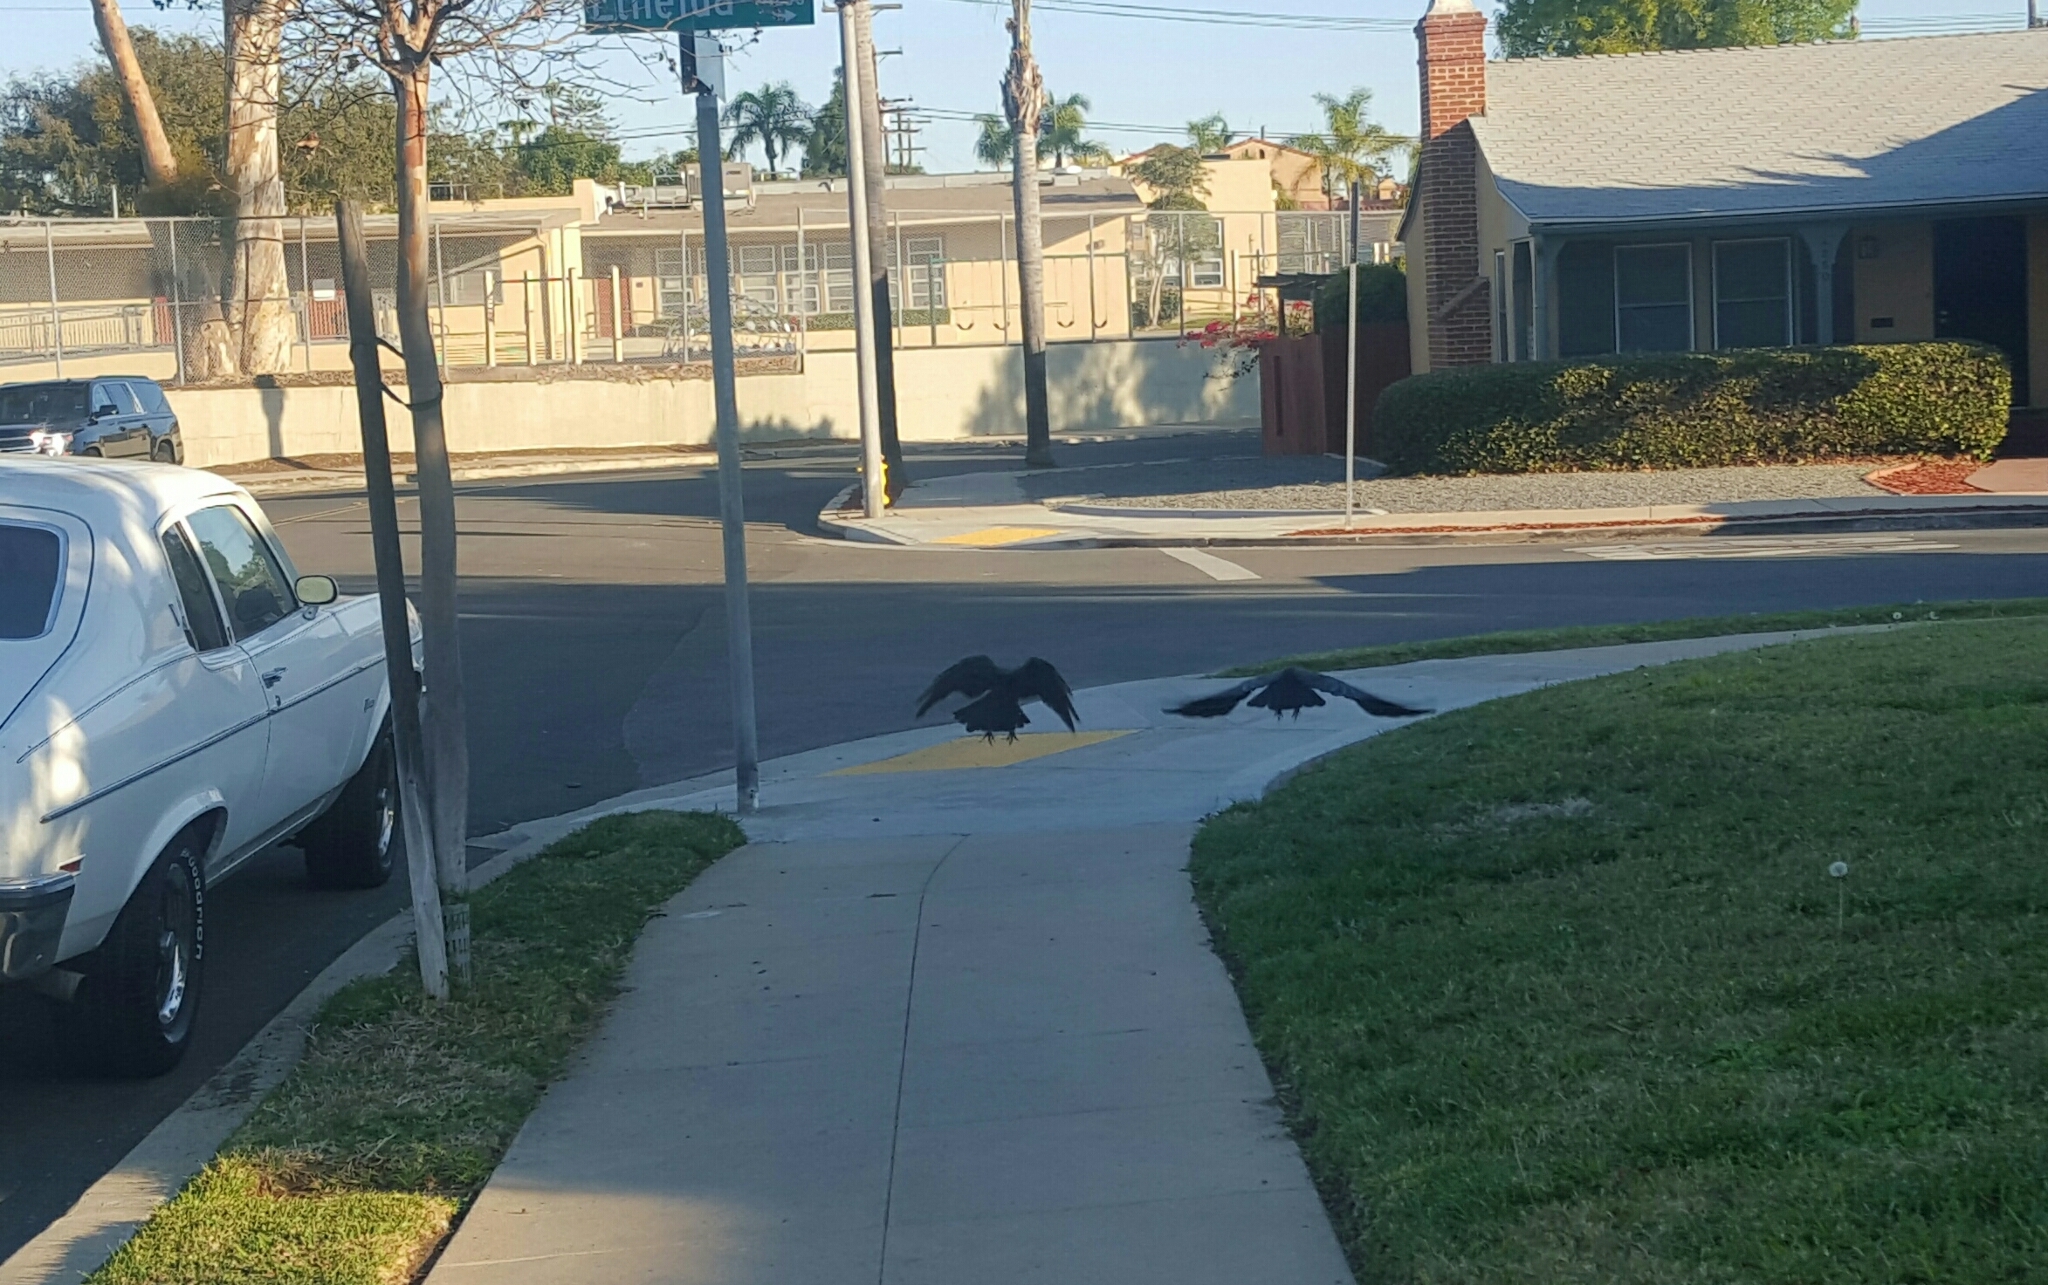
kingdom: Animalia
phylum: Chordata
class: Aves
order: Passeriformes
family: Corvidae
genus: Corvus
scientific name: Corvus brachyrhynchos
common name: American crow
